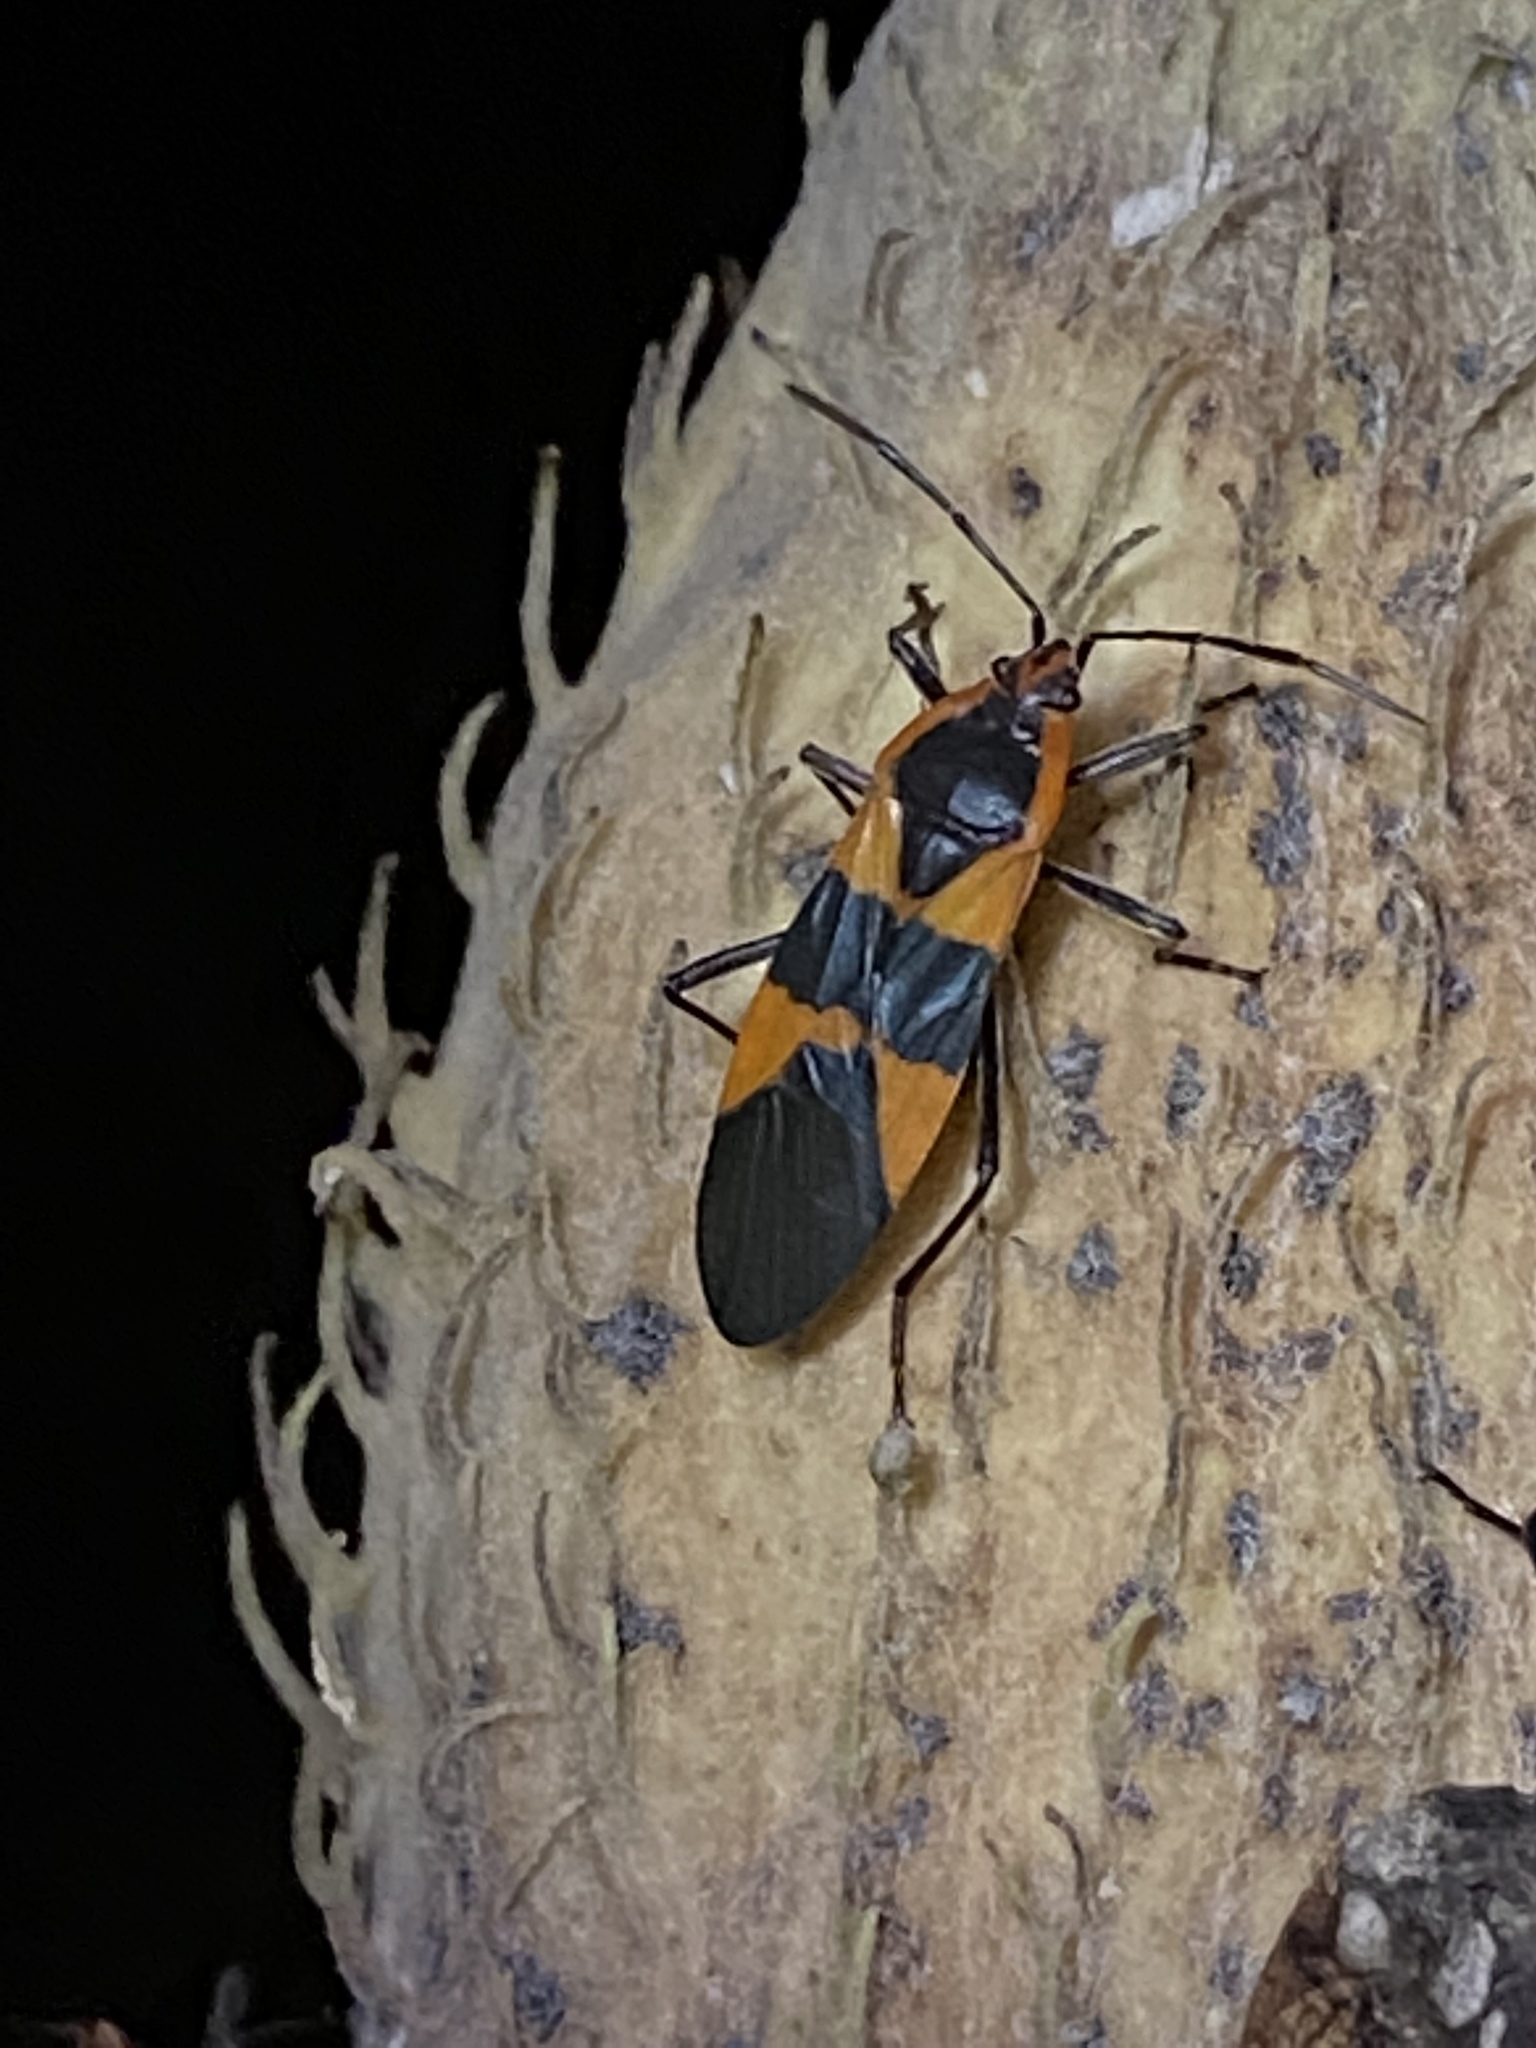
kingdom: Animalia
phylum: Arthropoda
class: Insecta
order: Hemiptera
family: Lygaeidae
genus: Oncopeltus
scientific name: Oncopeltus fasciatus
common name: Large milkweed bug
